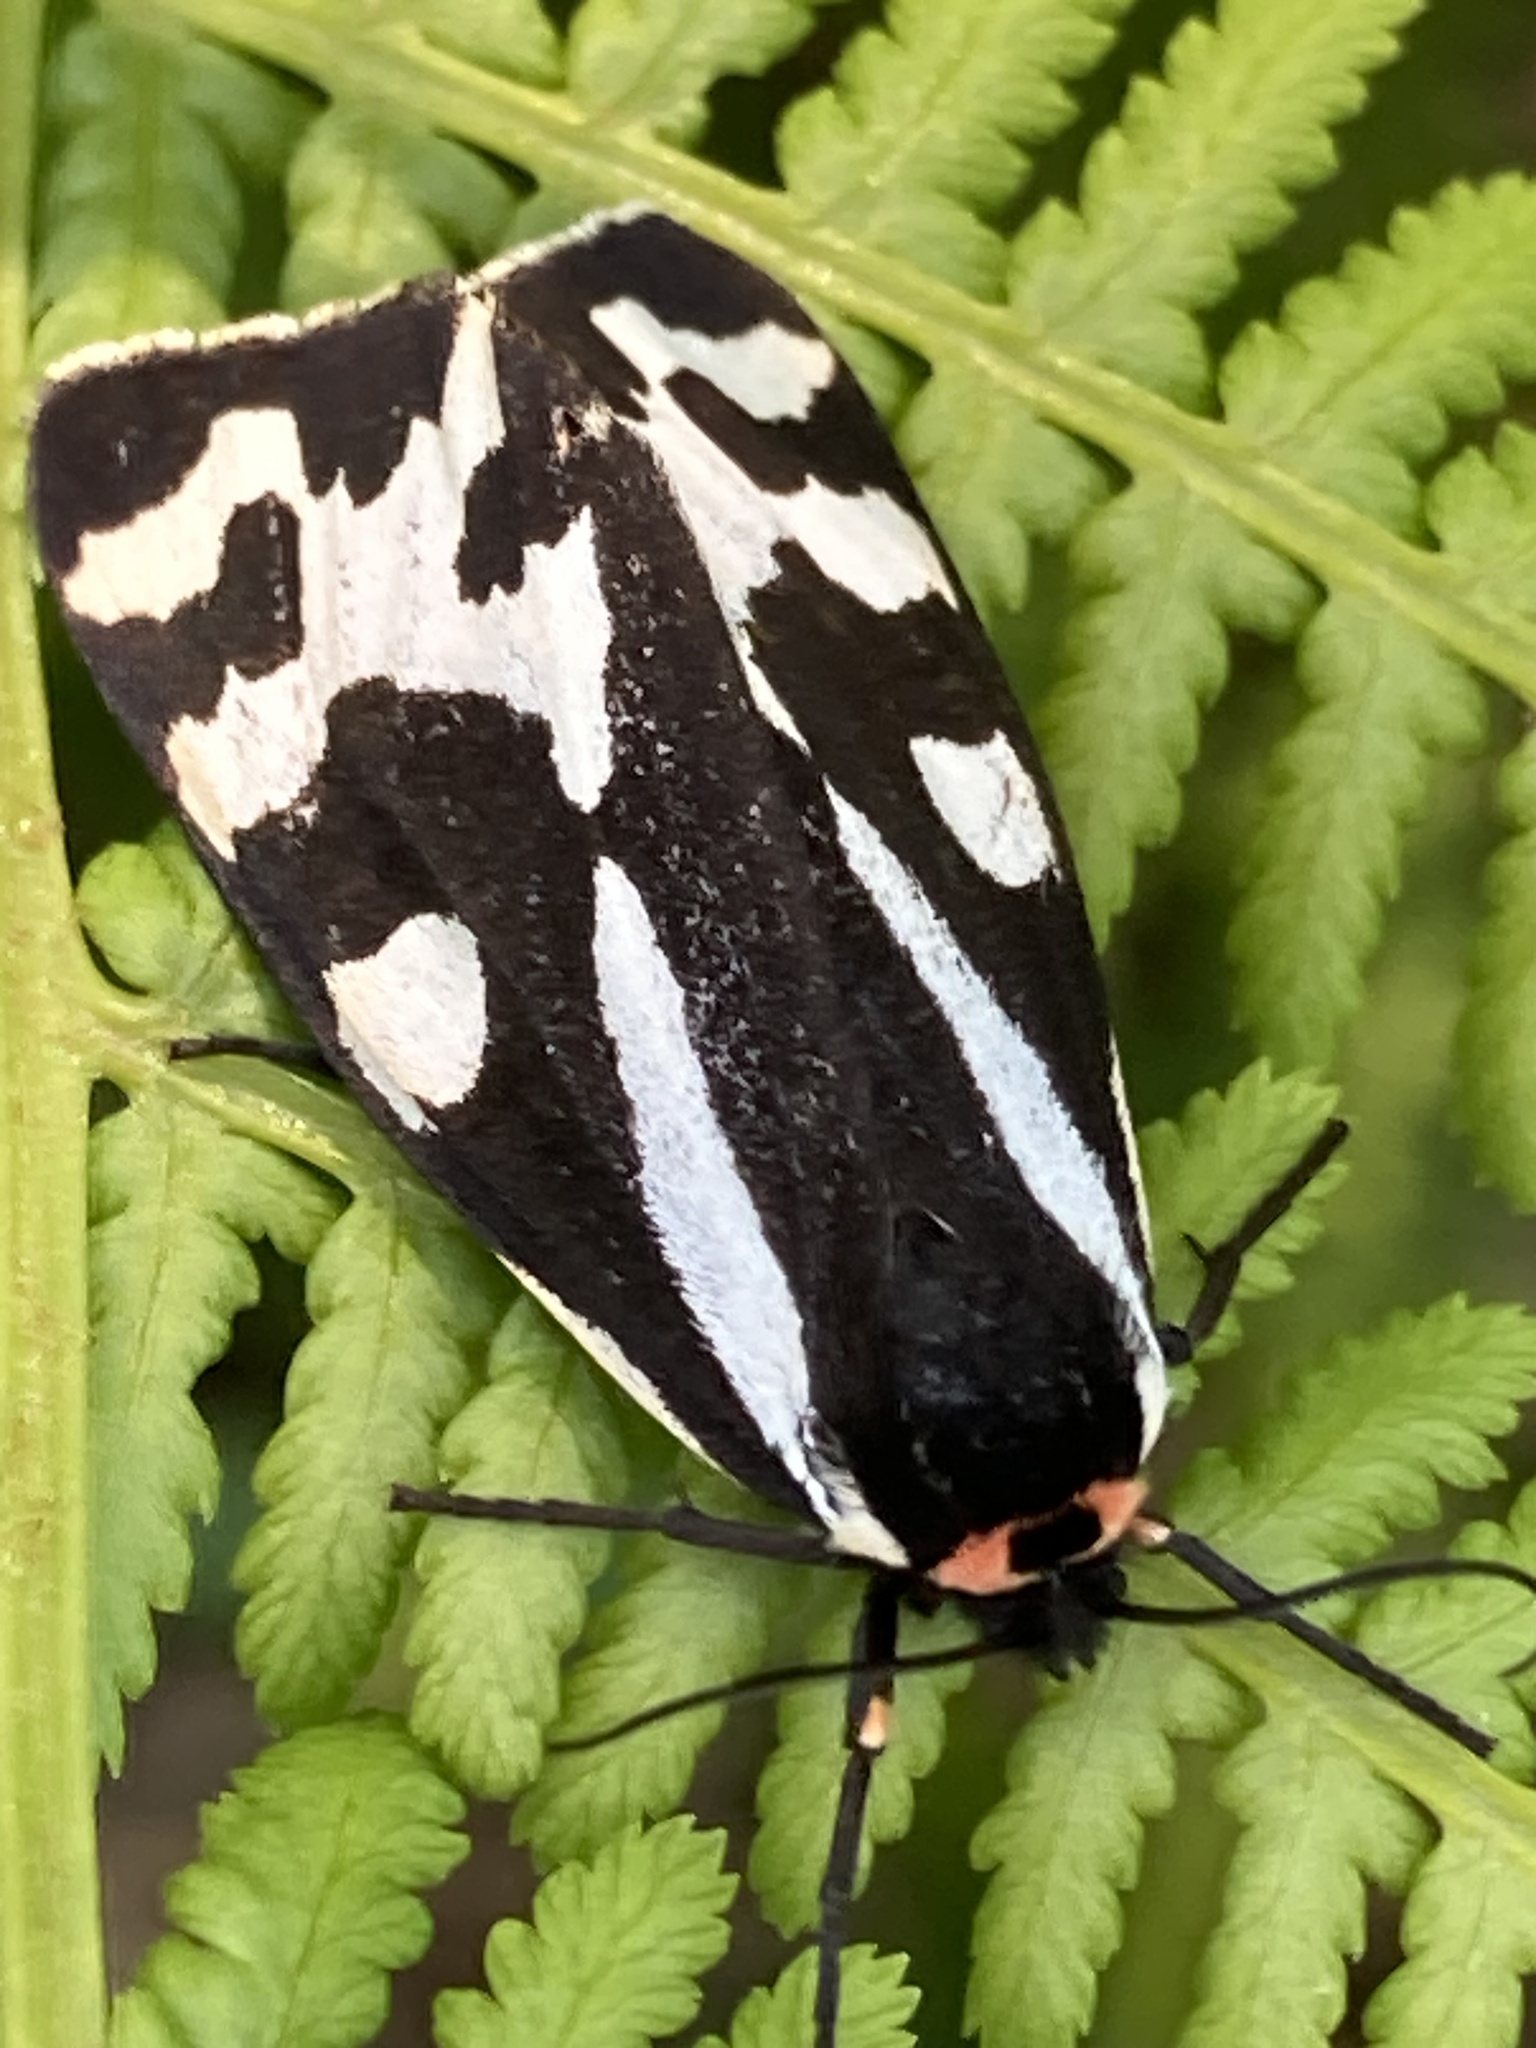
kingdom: Animalia
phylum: Arthropoda
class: Insecta
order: Lepidoptera
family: Erebidae
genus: Parasemia
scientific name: Parasemia plantaginis
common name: Wood tiger
